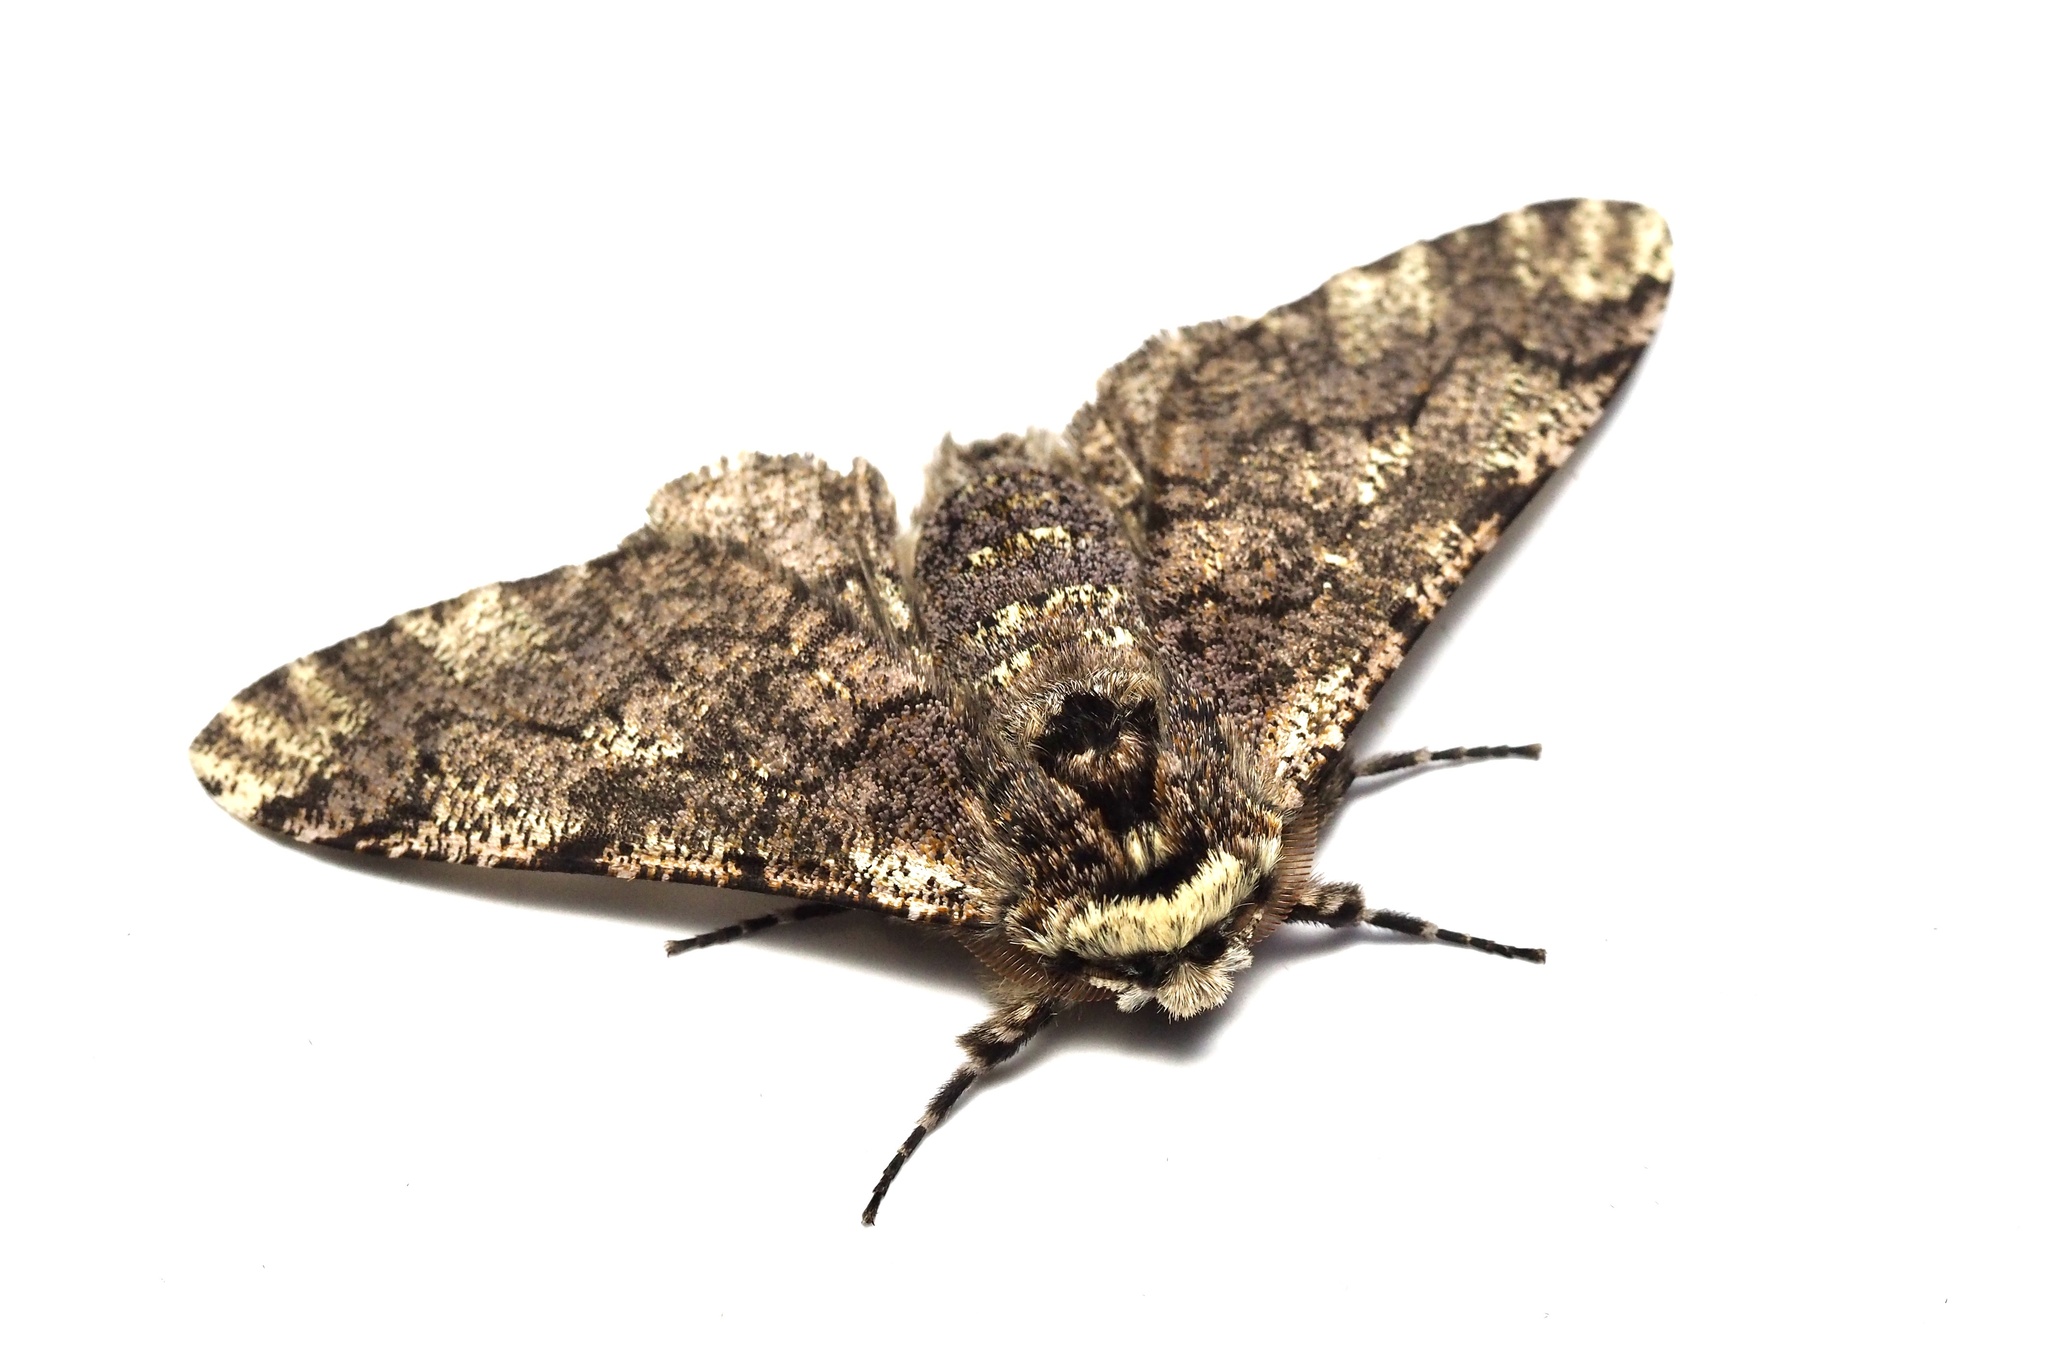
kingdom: Animalia
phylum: Arthropoda
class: Insecta
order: Lepidoptera
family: Geometridae
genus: Biston
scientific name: Biston robustum
